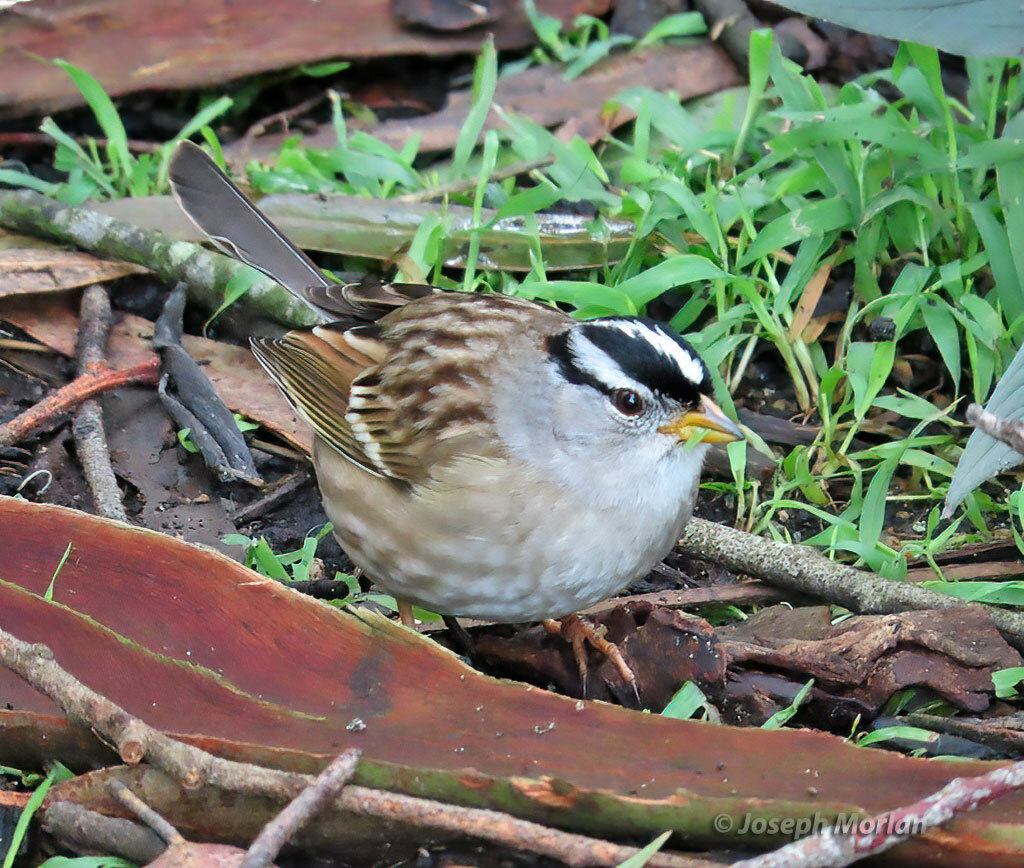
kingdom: Animalia
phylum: Chordata
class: Aves
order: Passeriformes
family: Passerellidae
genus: Zonotrichia
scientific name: Zonotrichia leucophrys
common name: White-crowned sparrow
